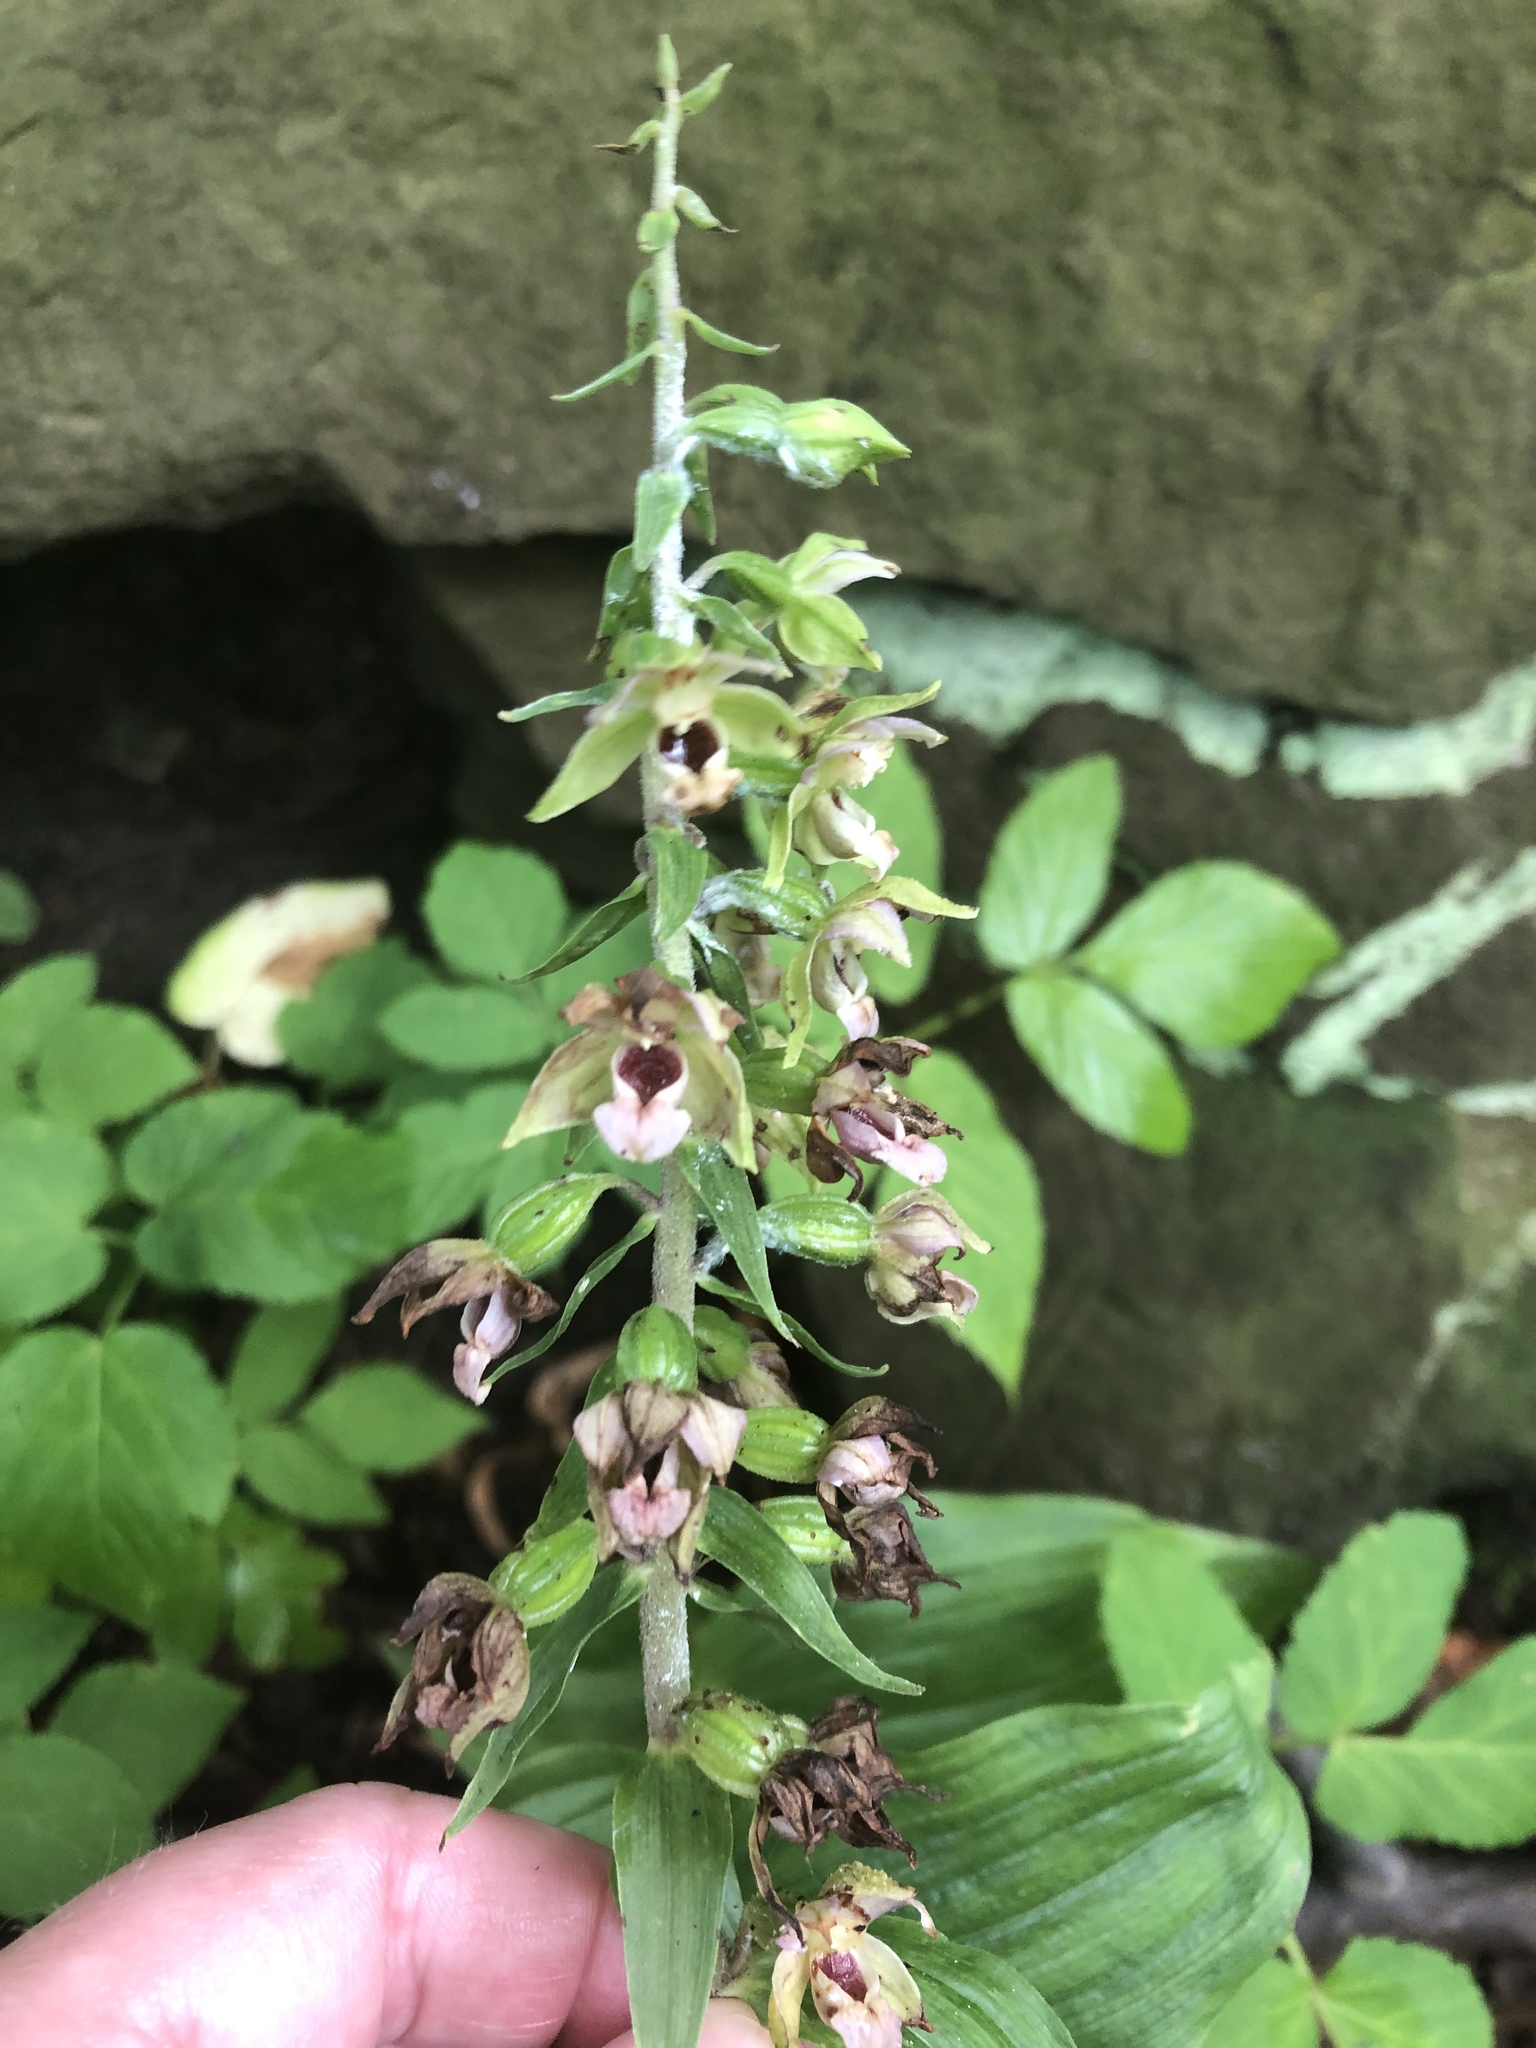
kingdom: Plantae
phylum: Tracheophyta
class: Liliopsida
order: Asparagales
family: Orchidaceae
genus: Epipactis
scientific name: Epipactis helleborine
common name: Broad-leaved helleborine
